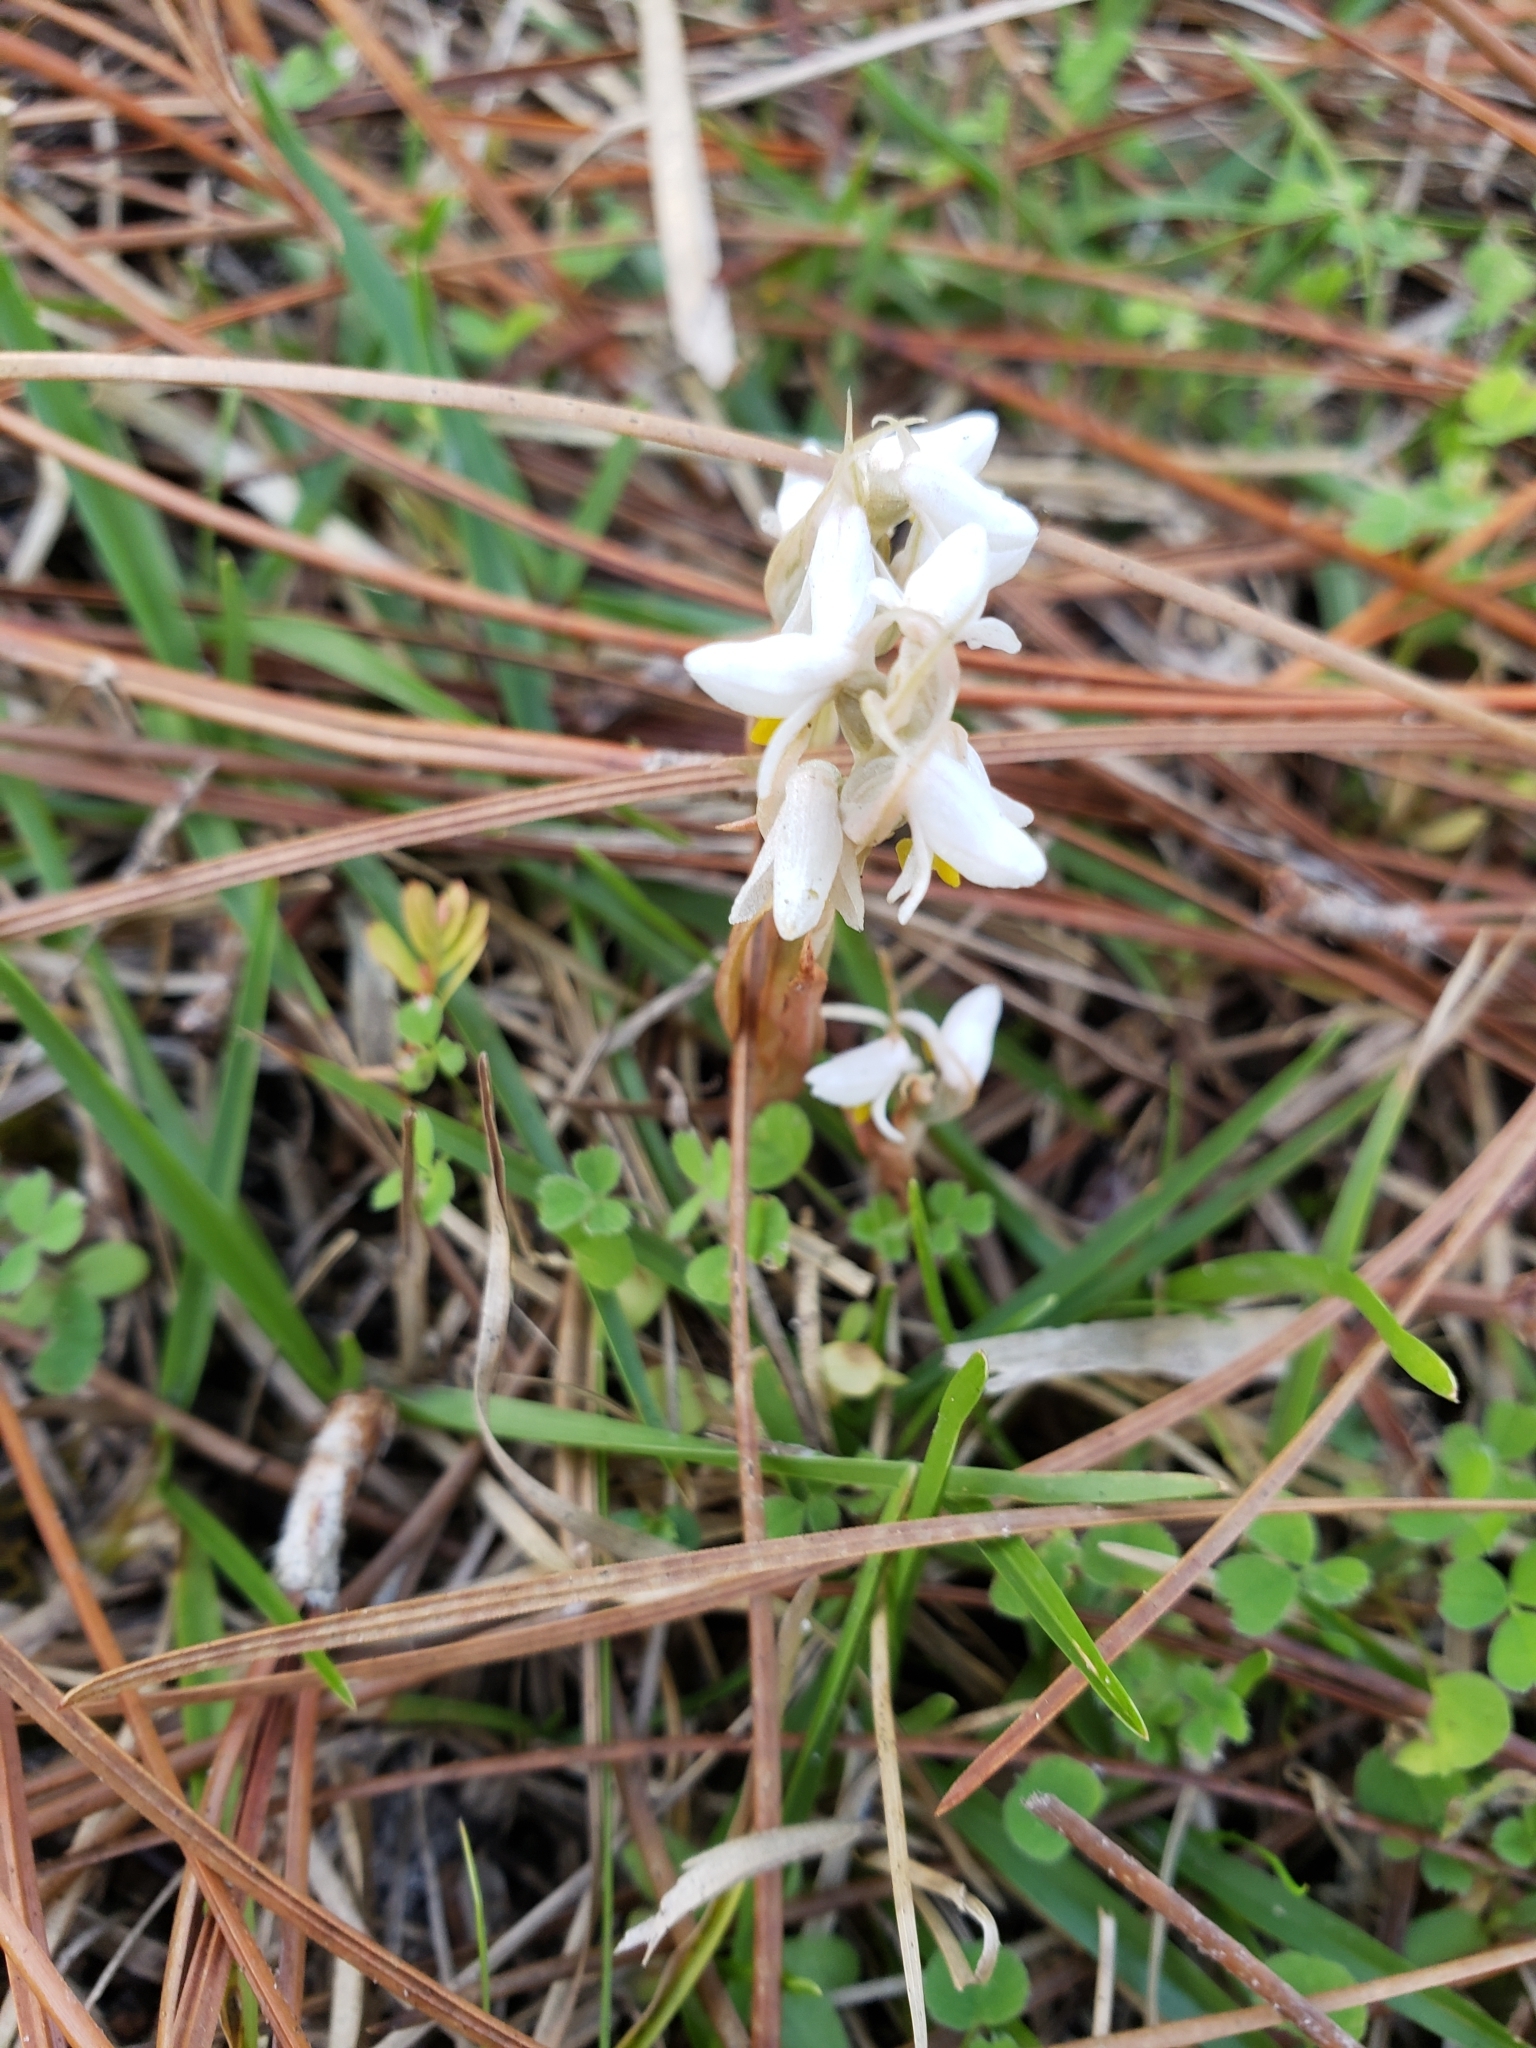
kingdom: Plantae
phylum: Tracheophyta
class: Liliopsida
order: Asparagales
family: Orchidaceae
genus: Zeuxine
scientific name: Zeuxine strateumatica
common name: Soldier's orchid
